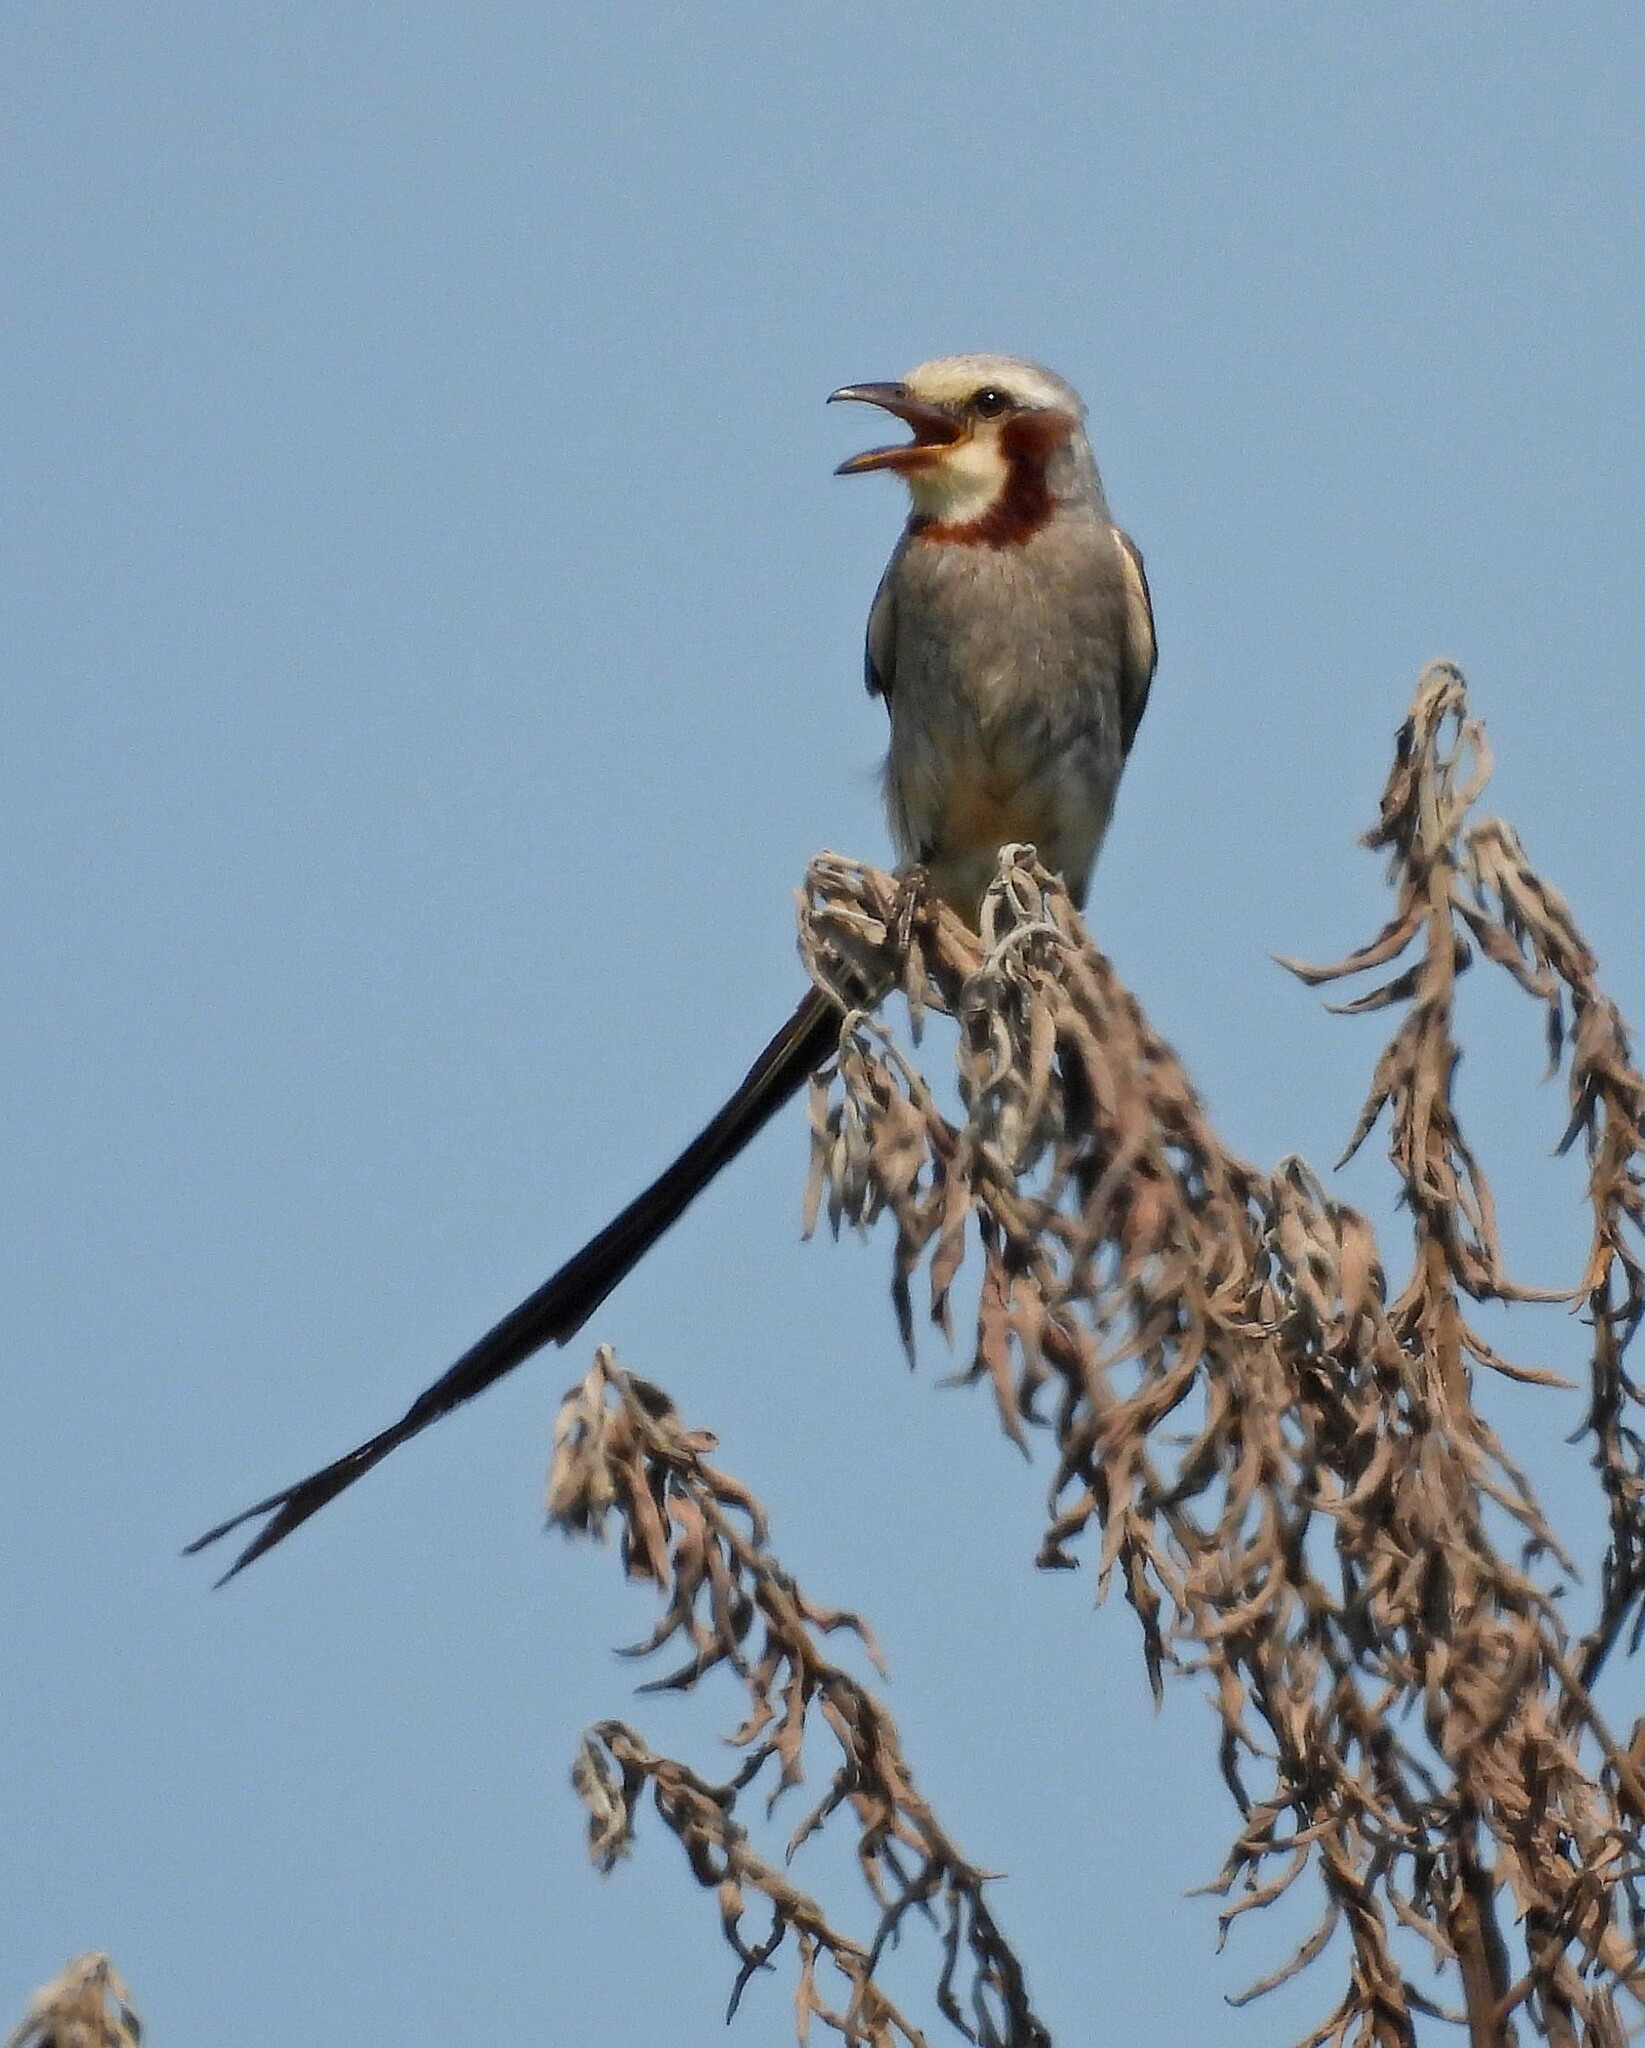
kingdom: Animalia
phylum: Chordata
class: Aves
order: Passeriformes
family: Tyrannidae
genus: Gubernetes
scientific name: Gubernetes yetapa
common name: Streamer-tailed tyrant
